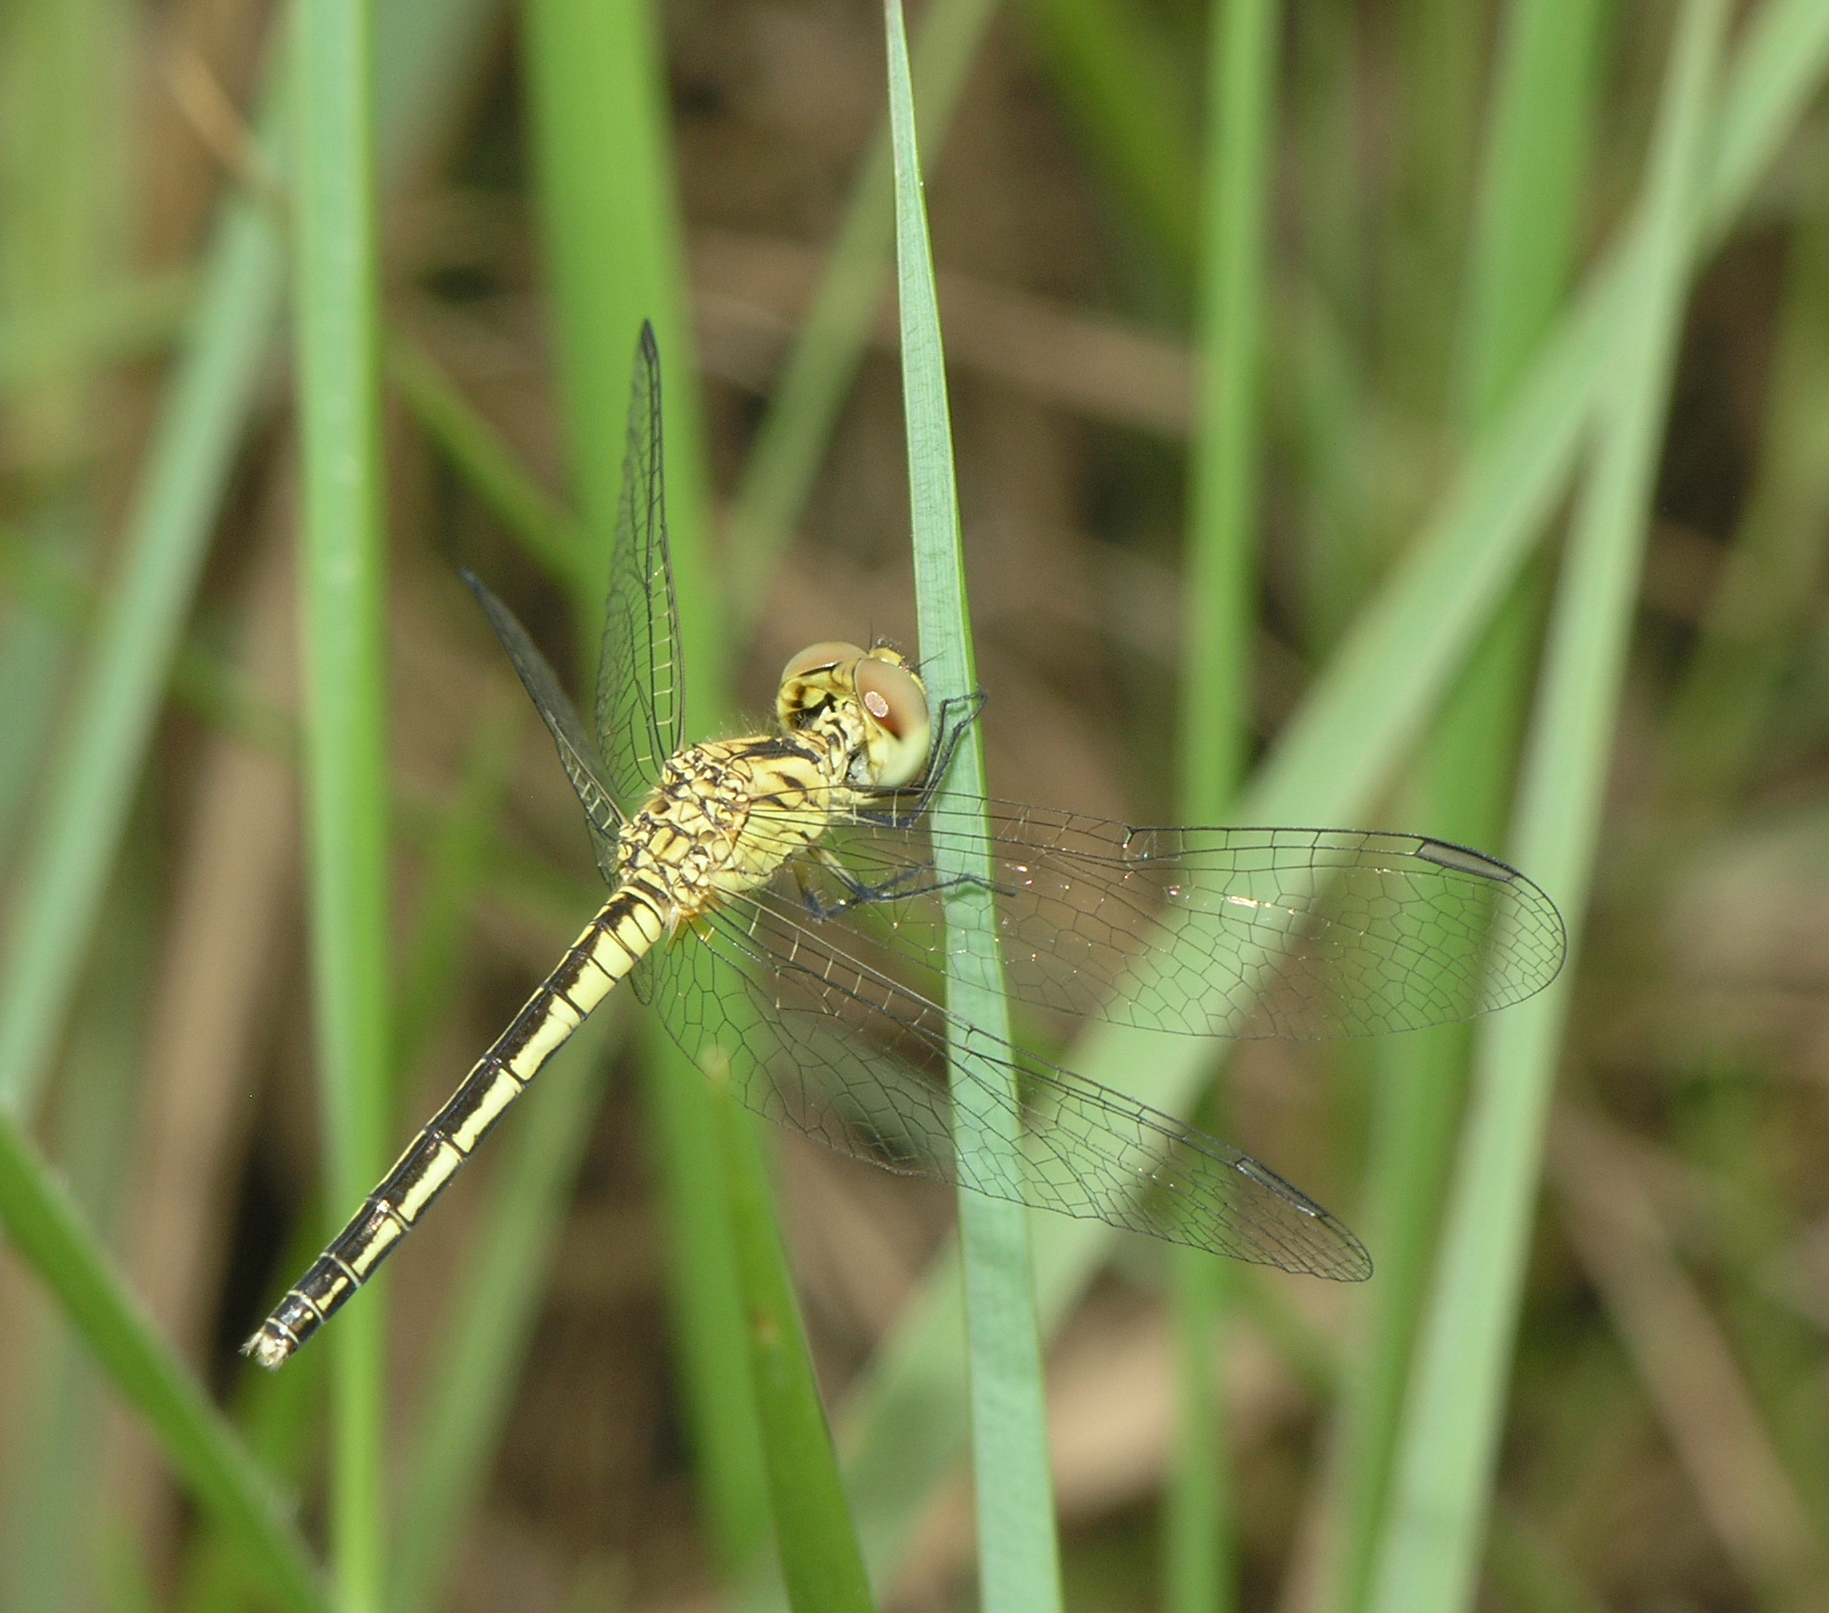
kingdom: Animalia
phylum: Arthropoda
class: Insecta
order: Odonata
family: Libellulidae
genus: Diplacodes
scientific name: Diplacodes nebulosa
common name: Black-tipped percher
